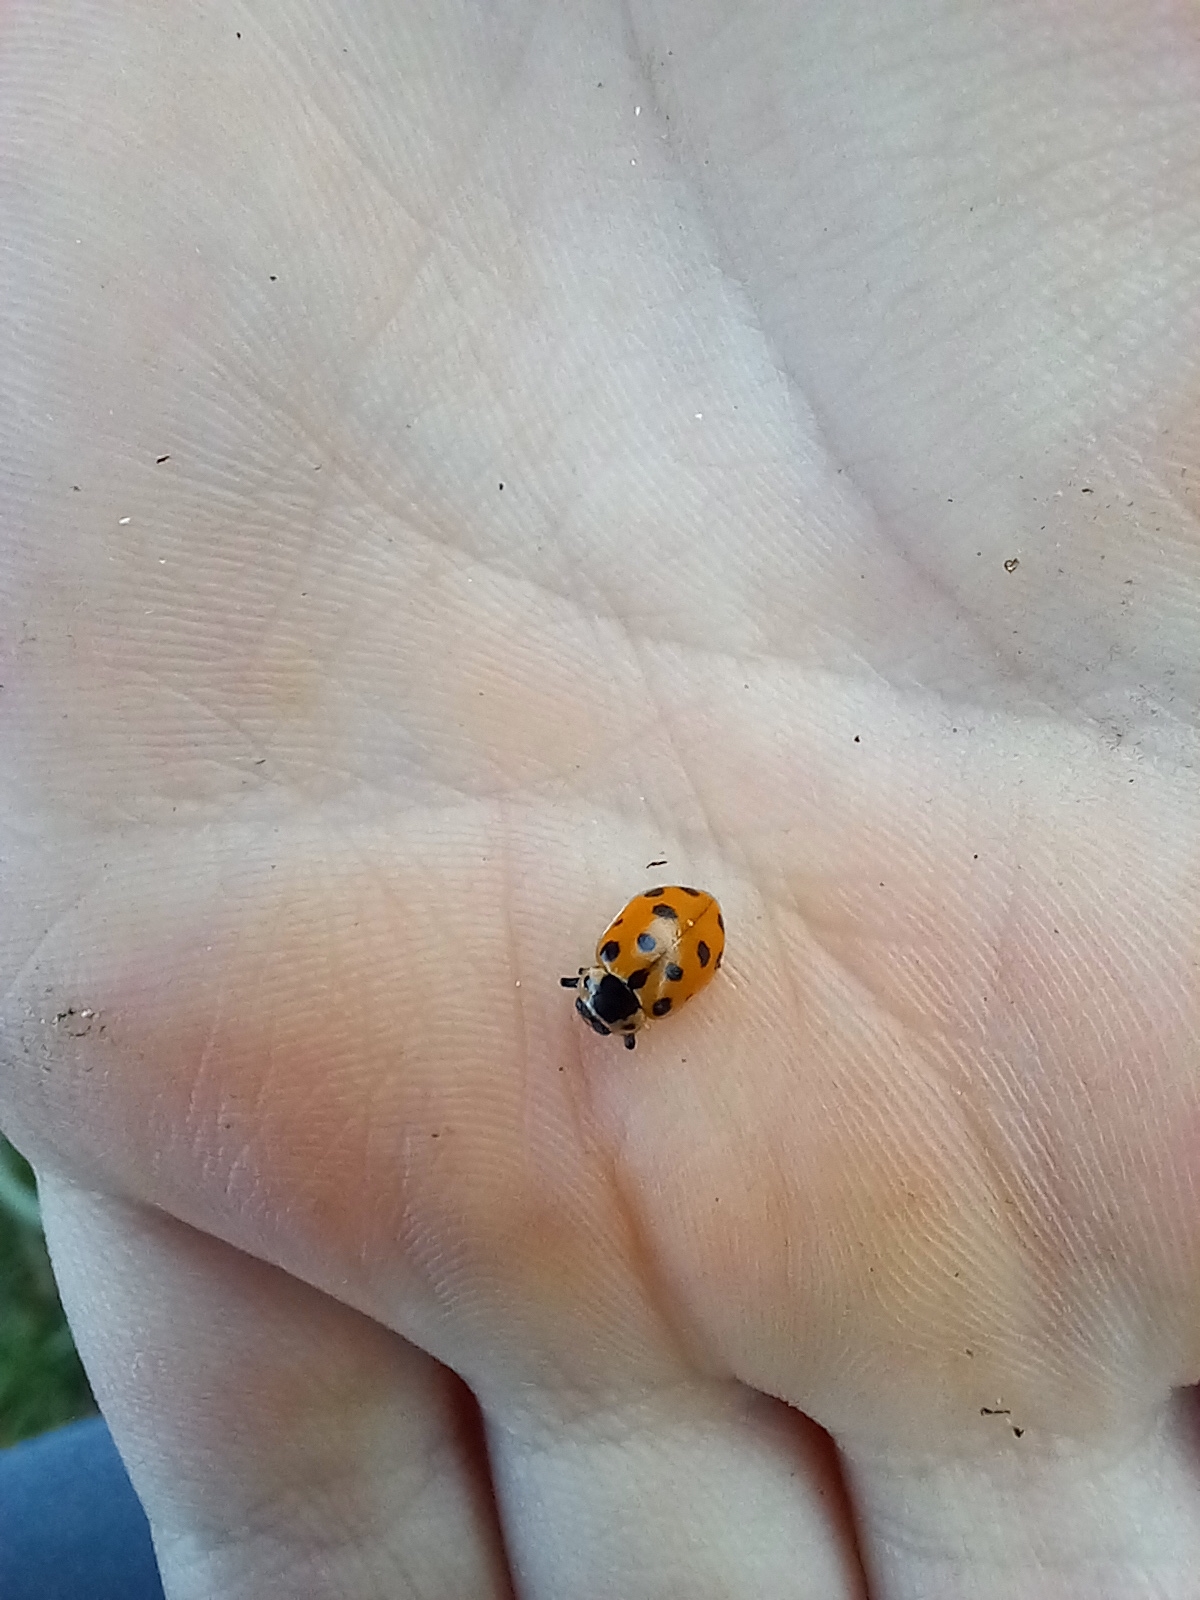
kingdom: Animalia
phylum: Arthropoda
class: Insecta
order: Coleoptera
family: Coccinellidae
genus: Hippodamia
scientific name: Hippodamia tredecimpunctata
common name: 13-spot ladybird
